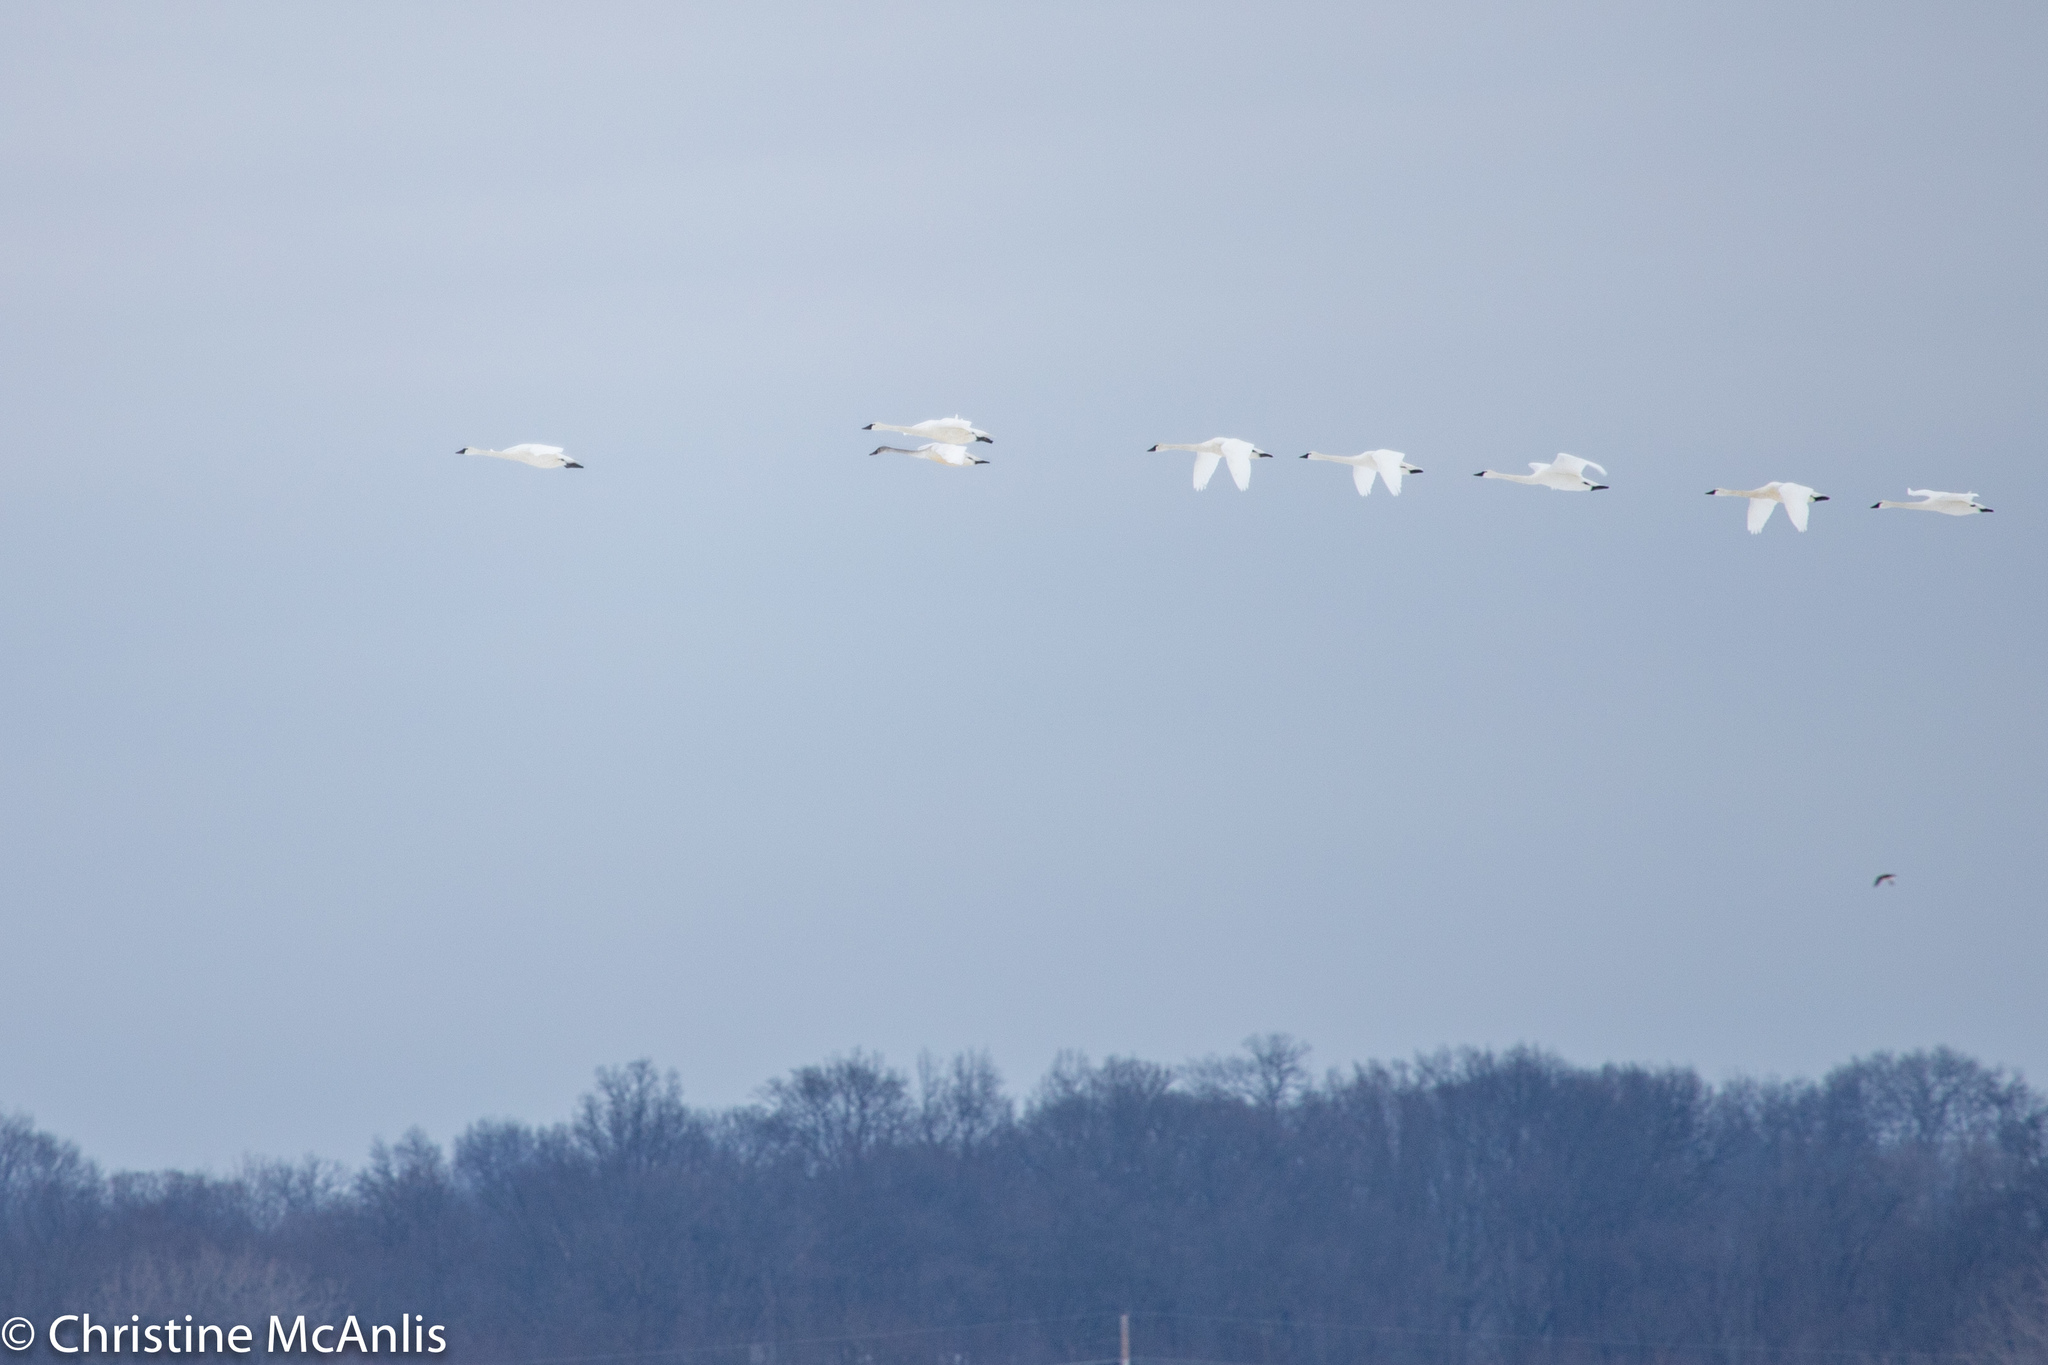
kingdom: Animalia
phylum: Chordata
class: Aves
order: Anseriformes
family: Anatidae
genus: Cygnus
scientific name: Cygnus columbianus
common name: Tundra swan
